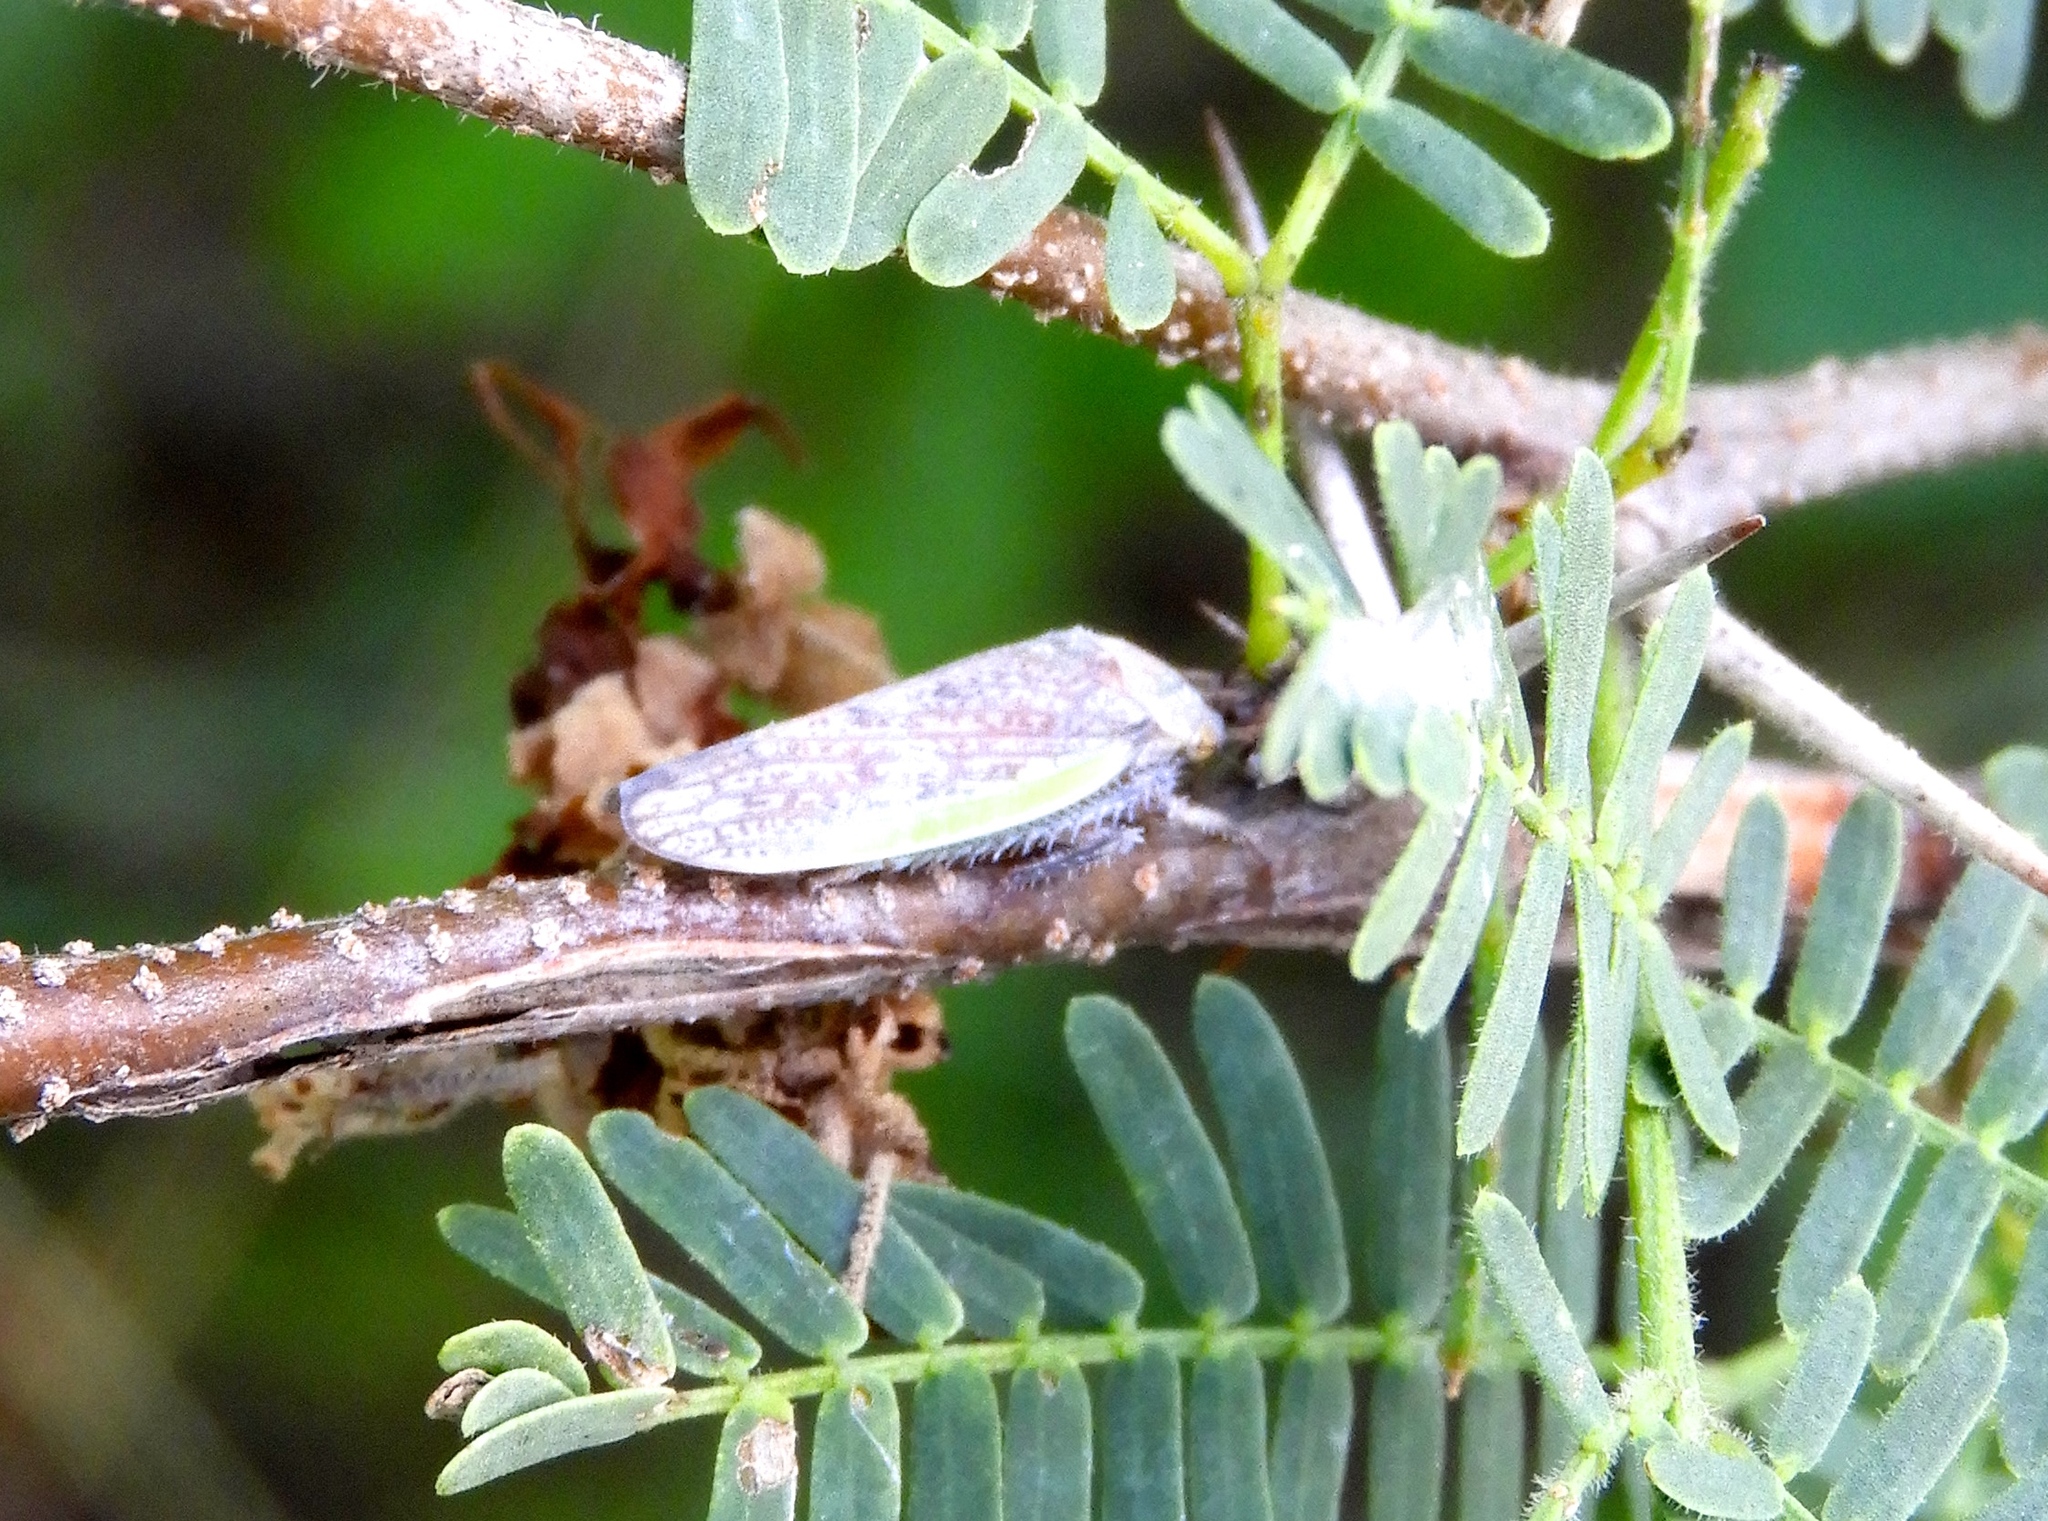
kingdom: Animalia
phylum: Arthropoda
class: Insecta
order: Hemiptera
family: Cicadellidae
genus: Hamana
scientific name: Hamana
